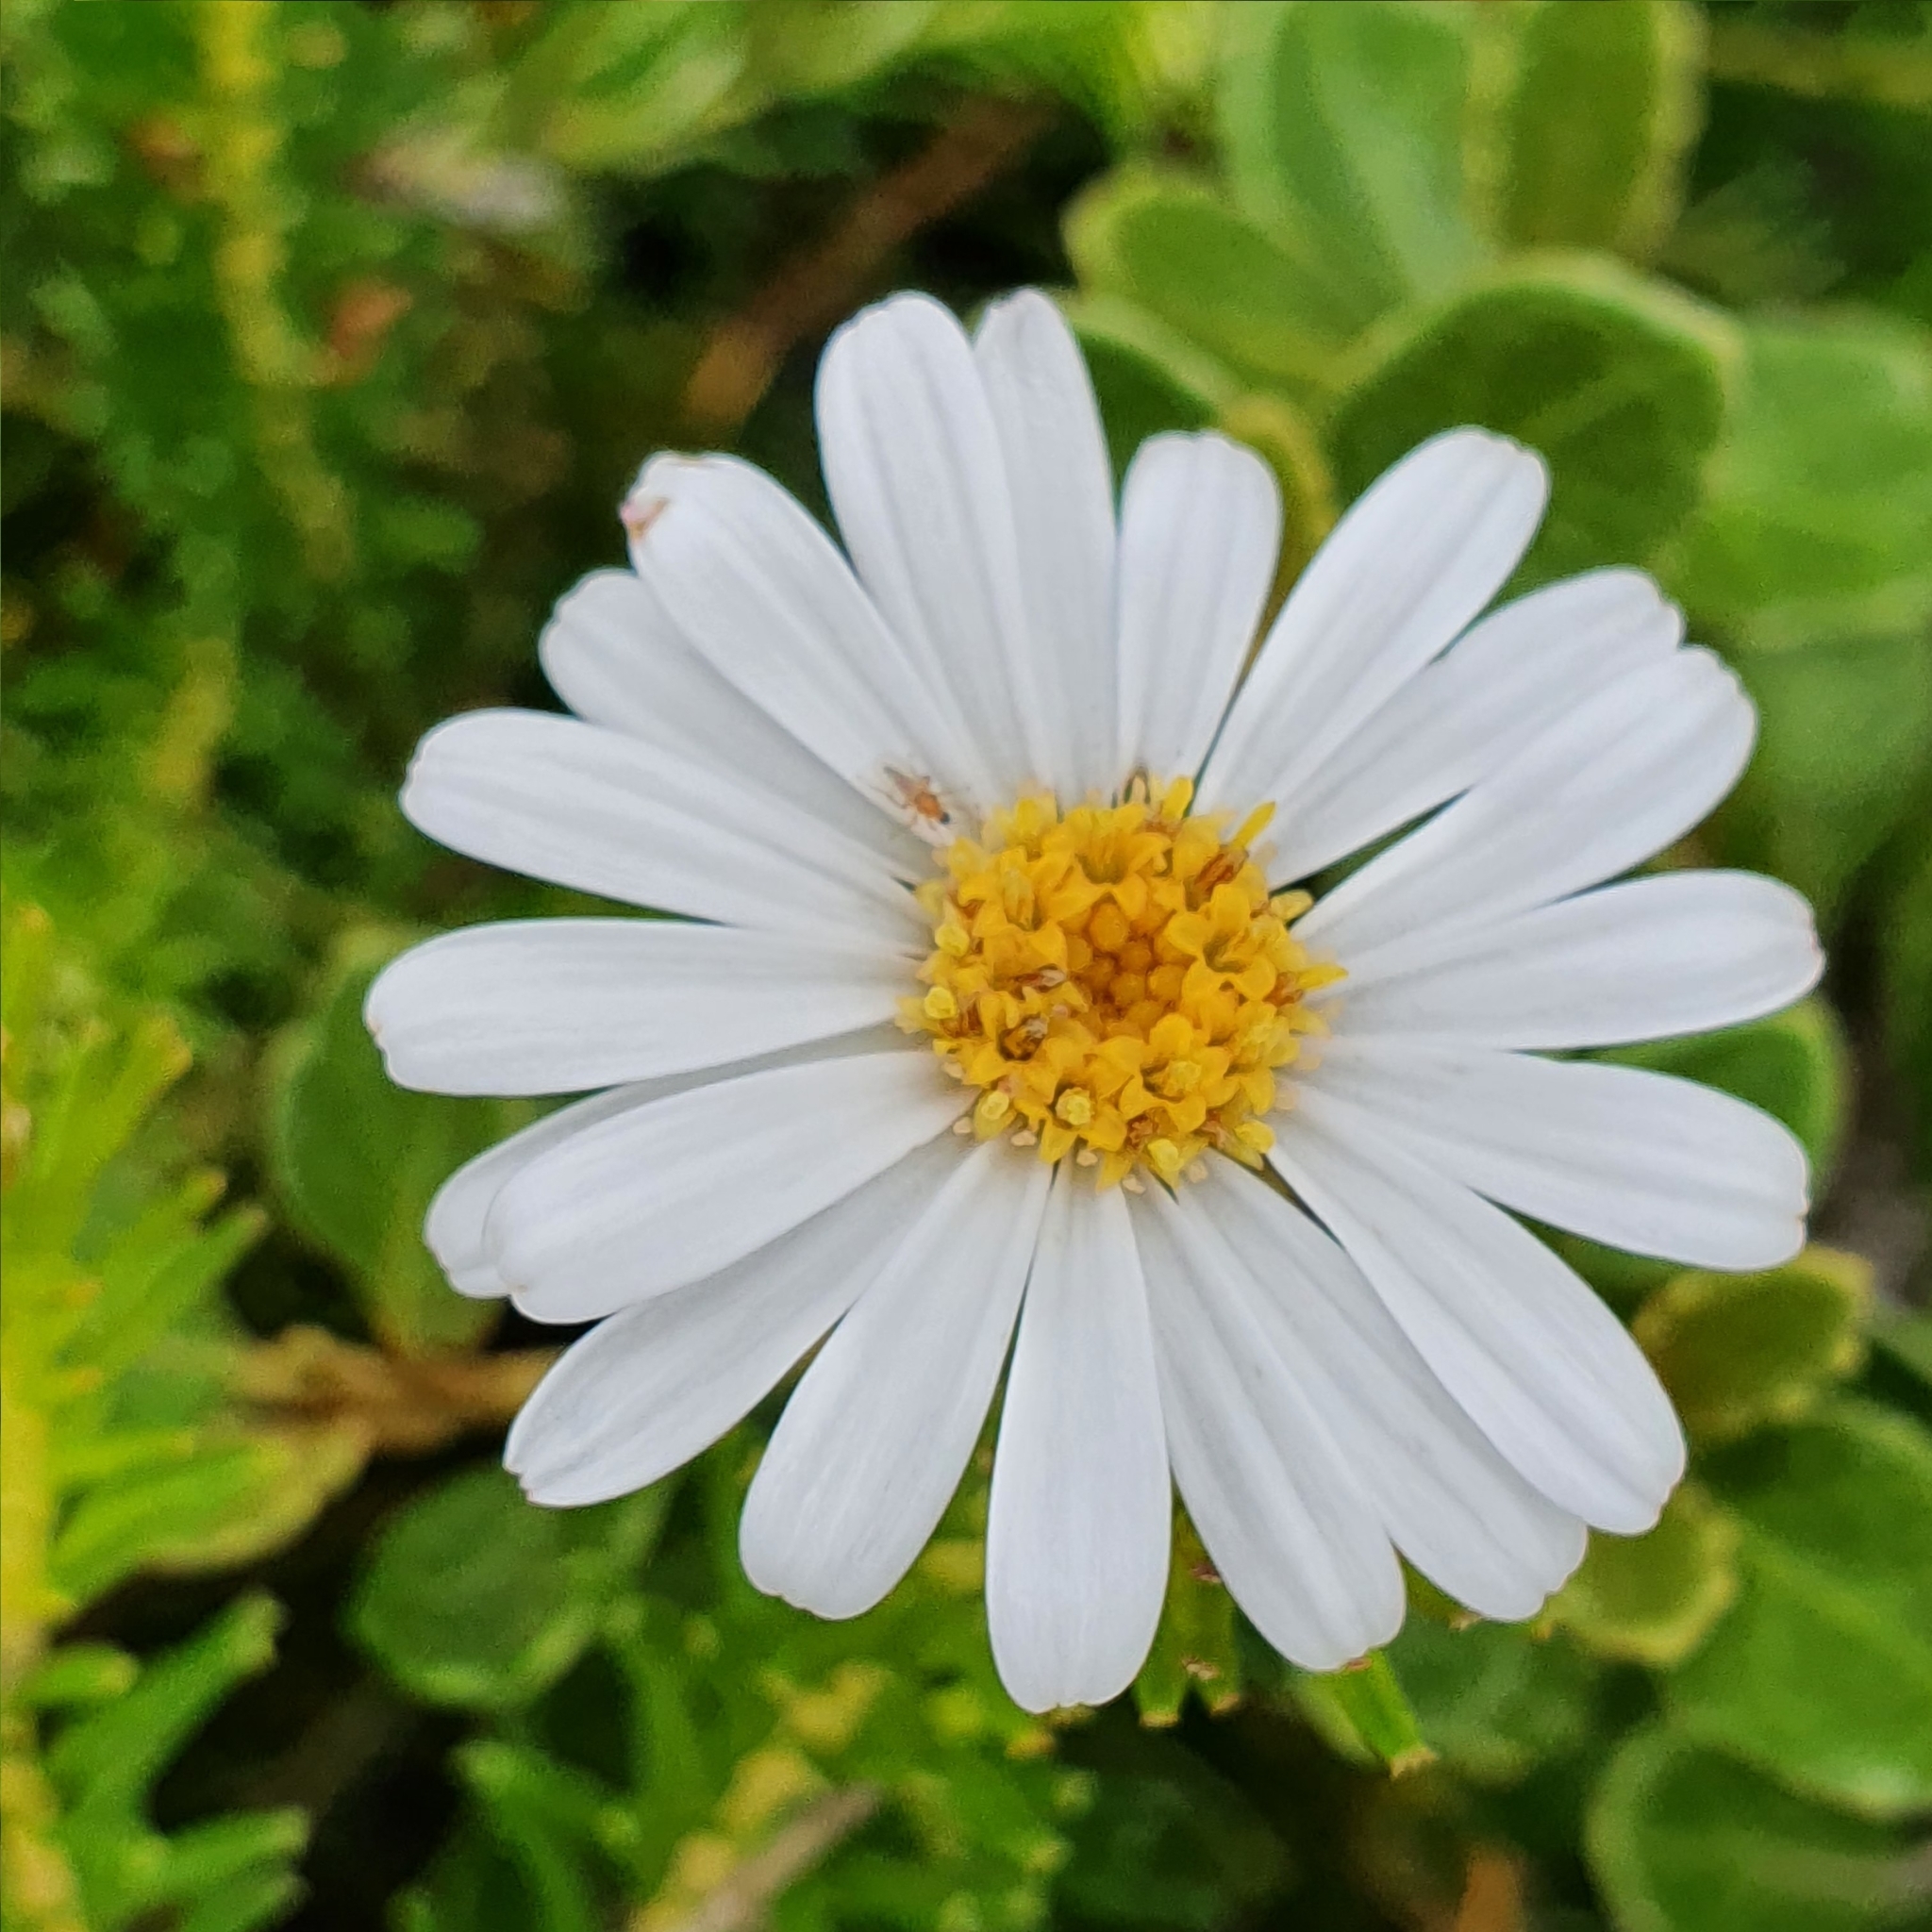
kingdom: Plantae
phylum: Tracheophyta
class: Magnoliopsida
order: Asterales
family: Asteraceae
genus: Olearia
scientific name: Olearia tomentosa
